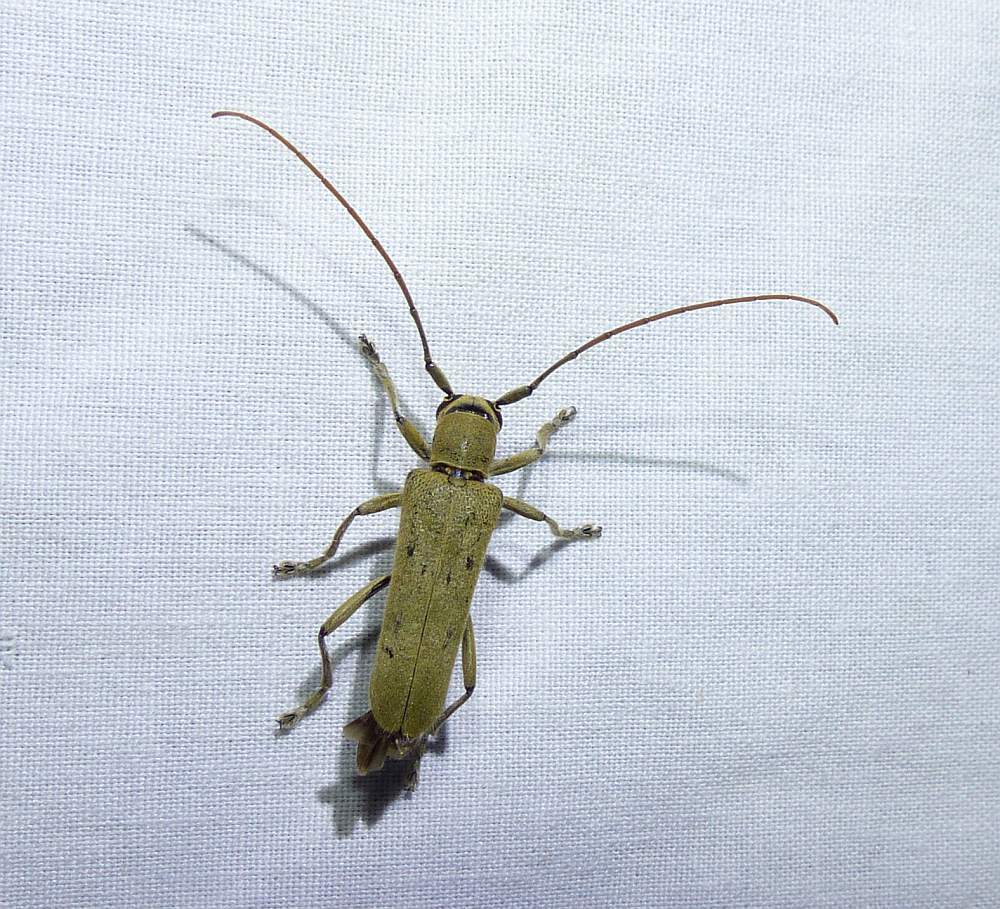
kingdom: Animalia
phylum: Arthropoda
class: Insecta
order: Coleoptera
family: Cerambycidae
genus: Saperda
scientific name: Saperda vestita
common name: Linden borer
